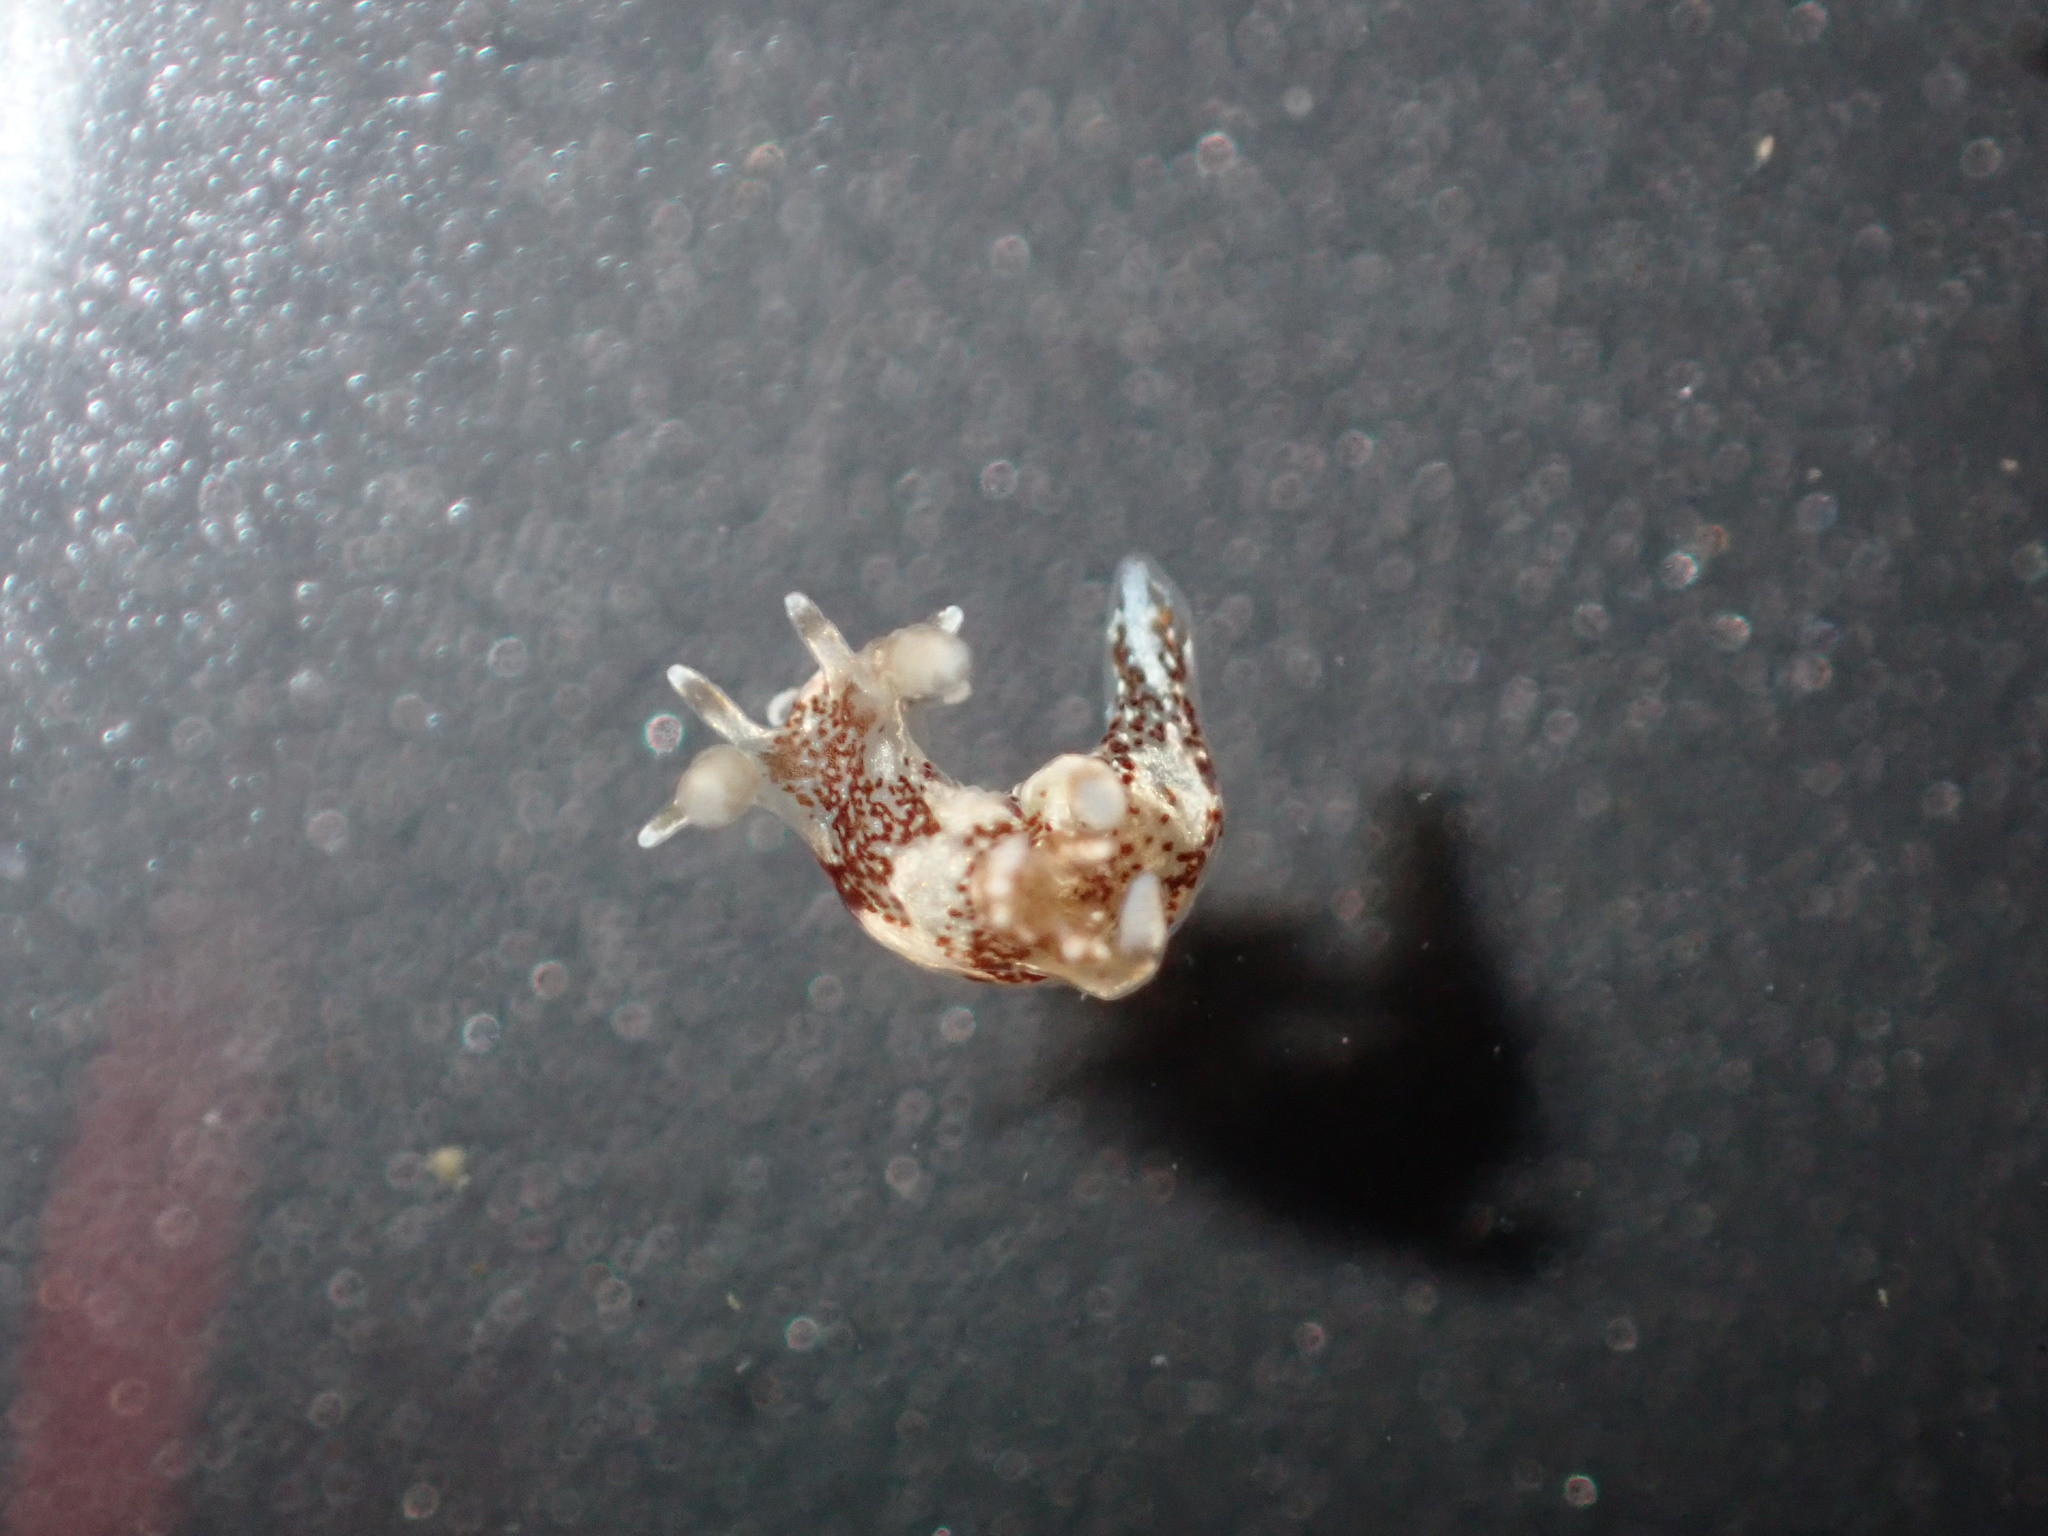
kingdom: Animalia
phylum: Mollusca
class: Gastropoda
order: Nudibranchia
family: Goniodorididae
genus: Ancula
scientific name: Ancula mapae
